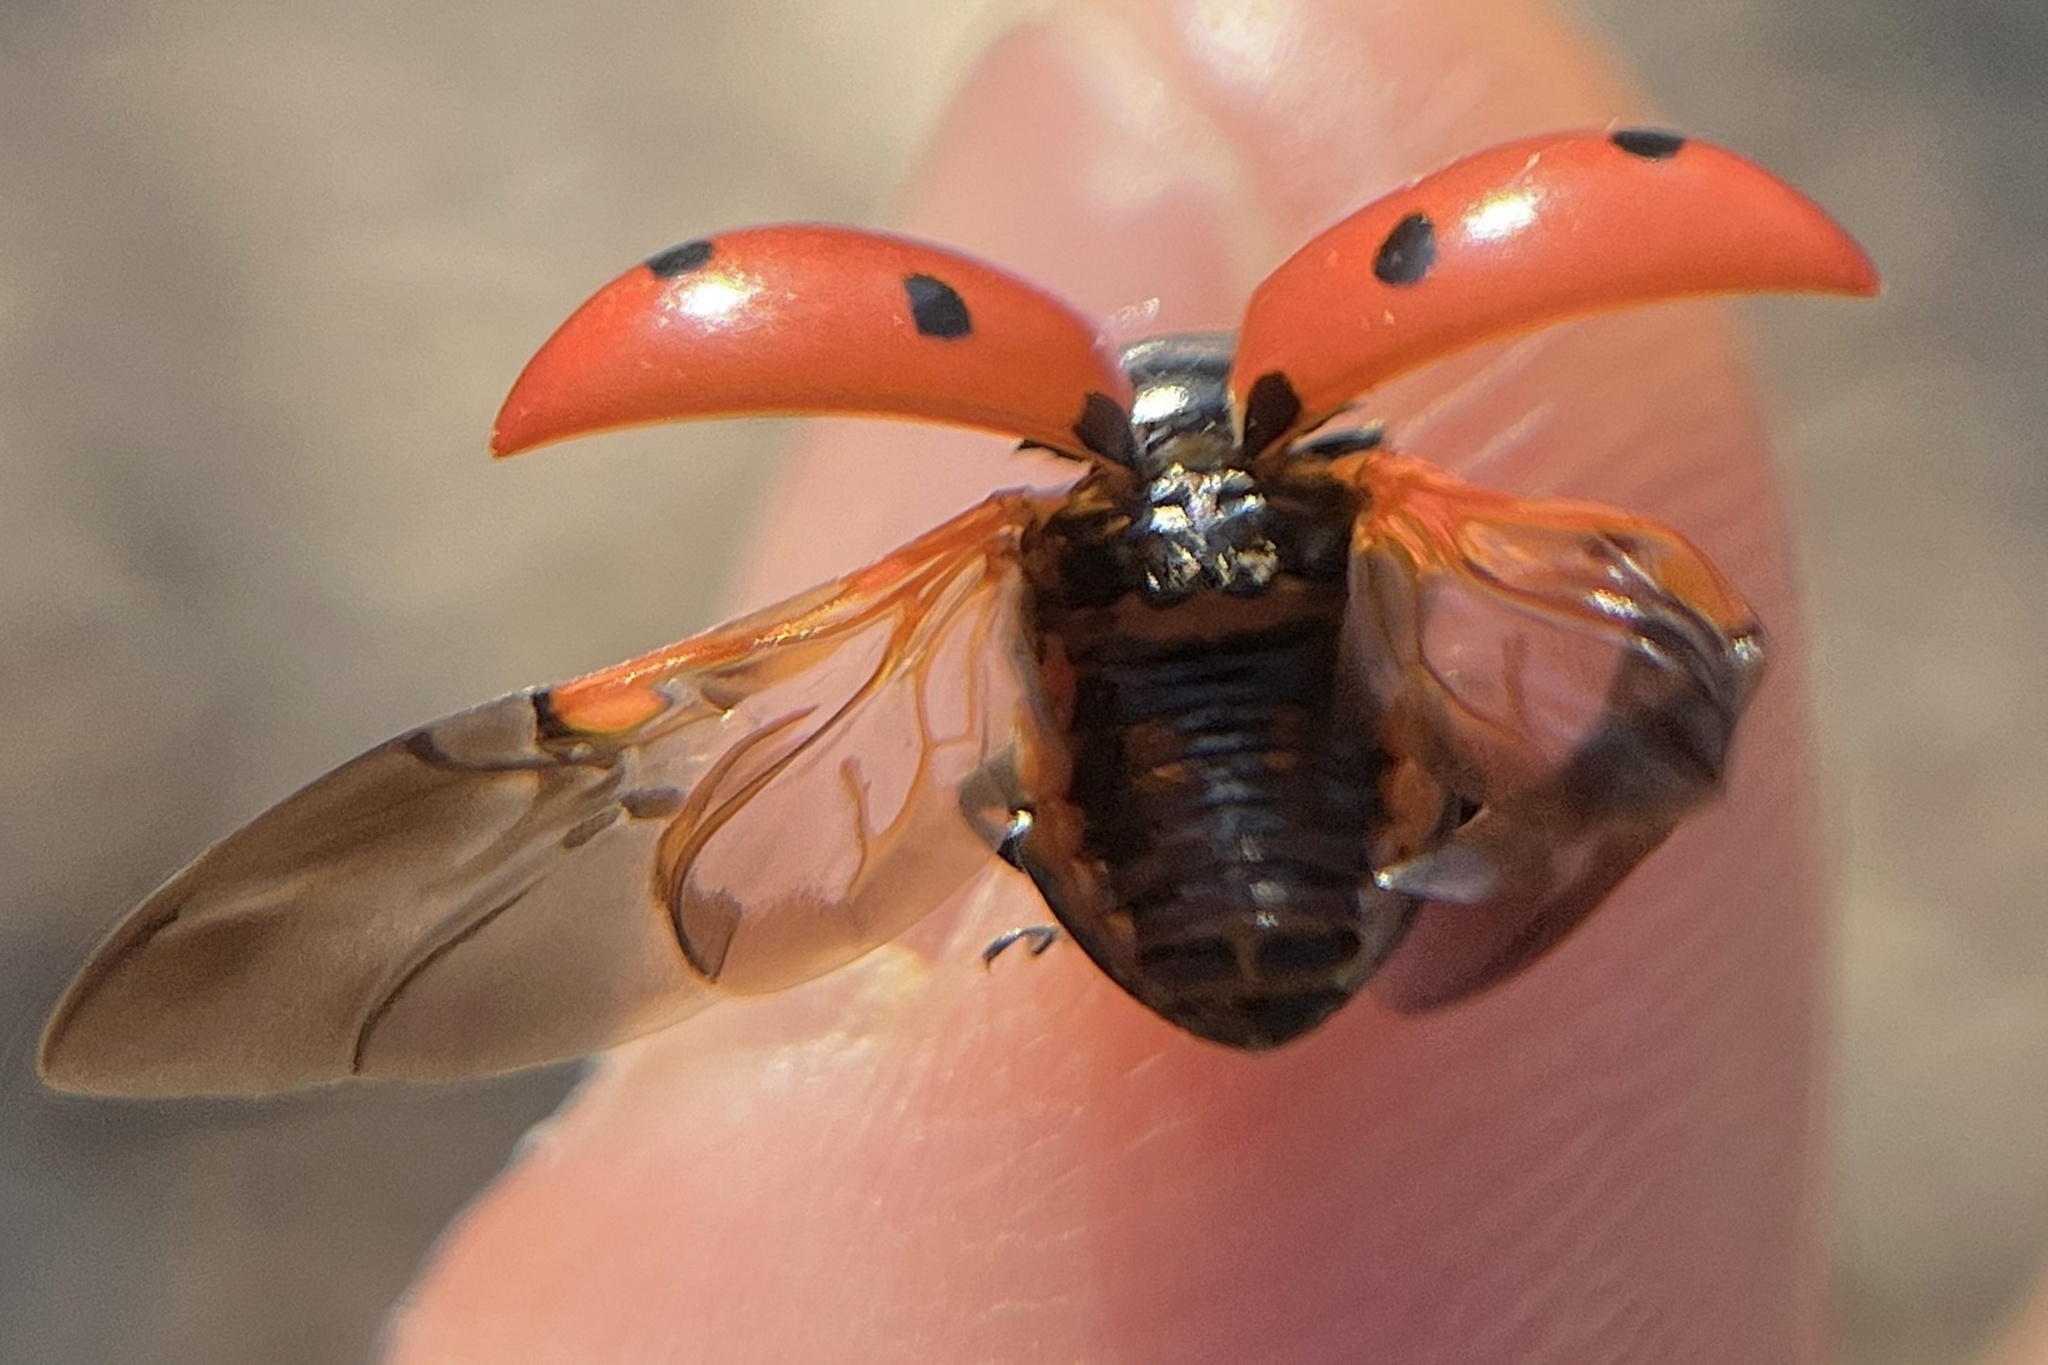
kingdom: Animalia
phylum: Arthropoda
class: Insecta
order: Coleoptera
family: Coccinellidae
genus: Coccinella
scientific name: Coccinella septempunctata
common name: Sevenspotted lady beetle
